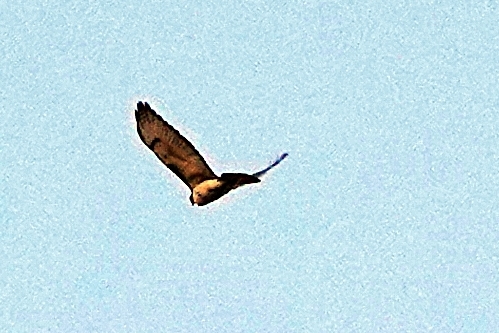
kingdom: Animalia
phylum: Chordata
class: Aves
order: Accipitriformes
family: Accipitridae
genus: Buteo
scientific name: Buteo jamaicensis
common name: Red-tailed hawk
